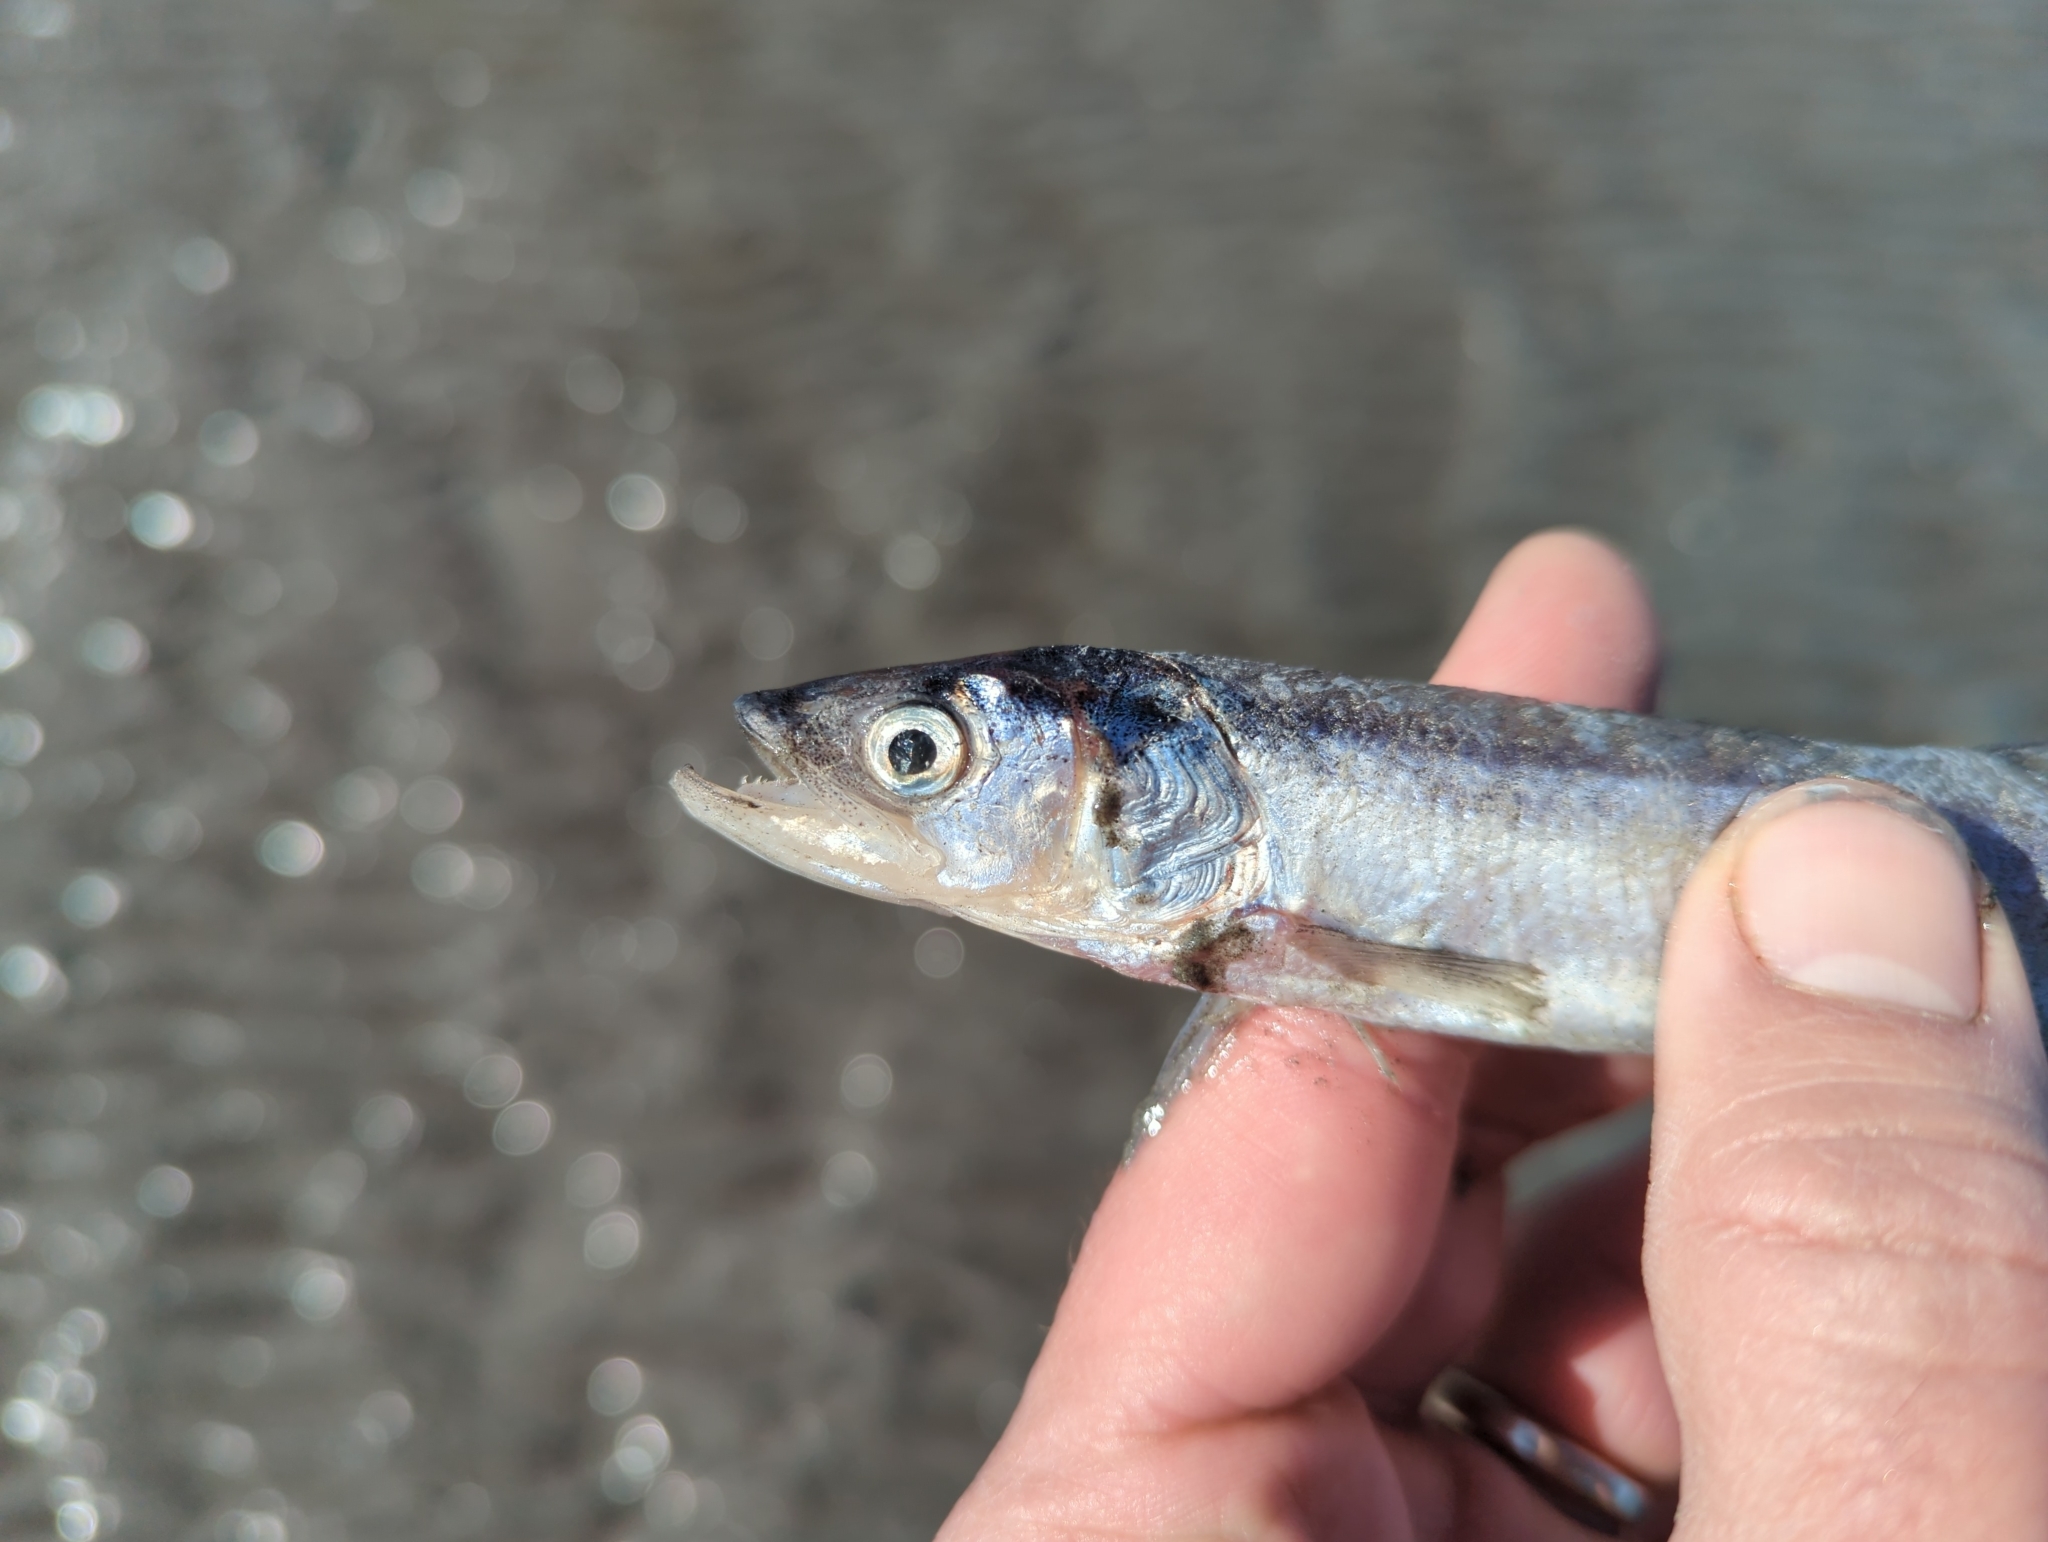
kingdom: Animalia
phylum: Chordata
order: Osmeriformes
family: Osmeridae
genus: Thaleichthys
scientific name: Thaleichthys pacificus
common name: Eulachon
